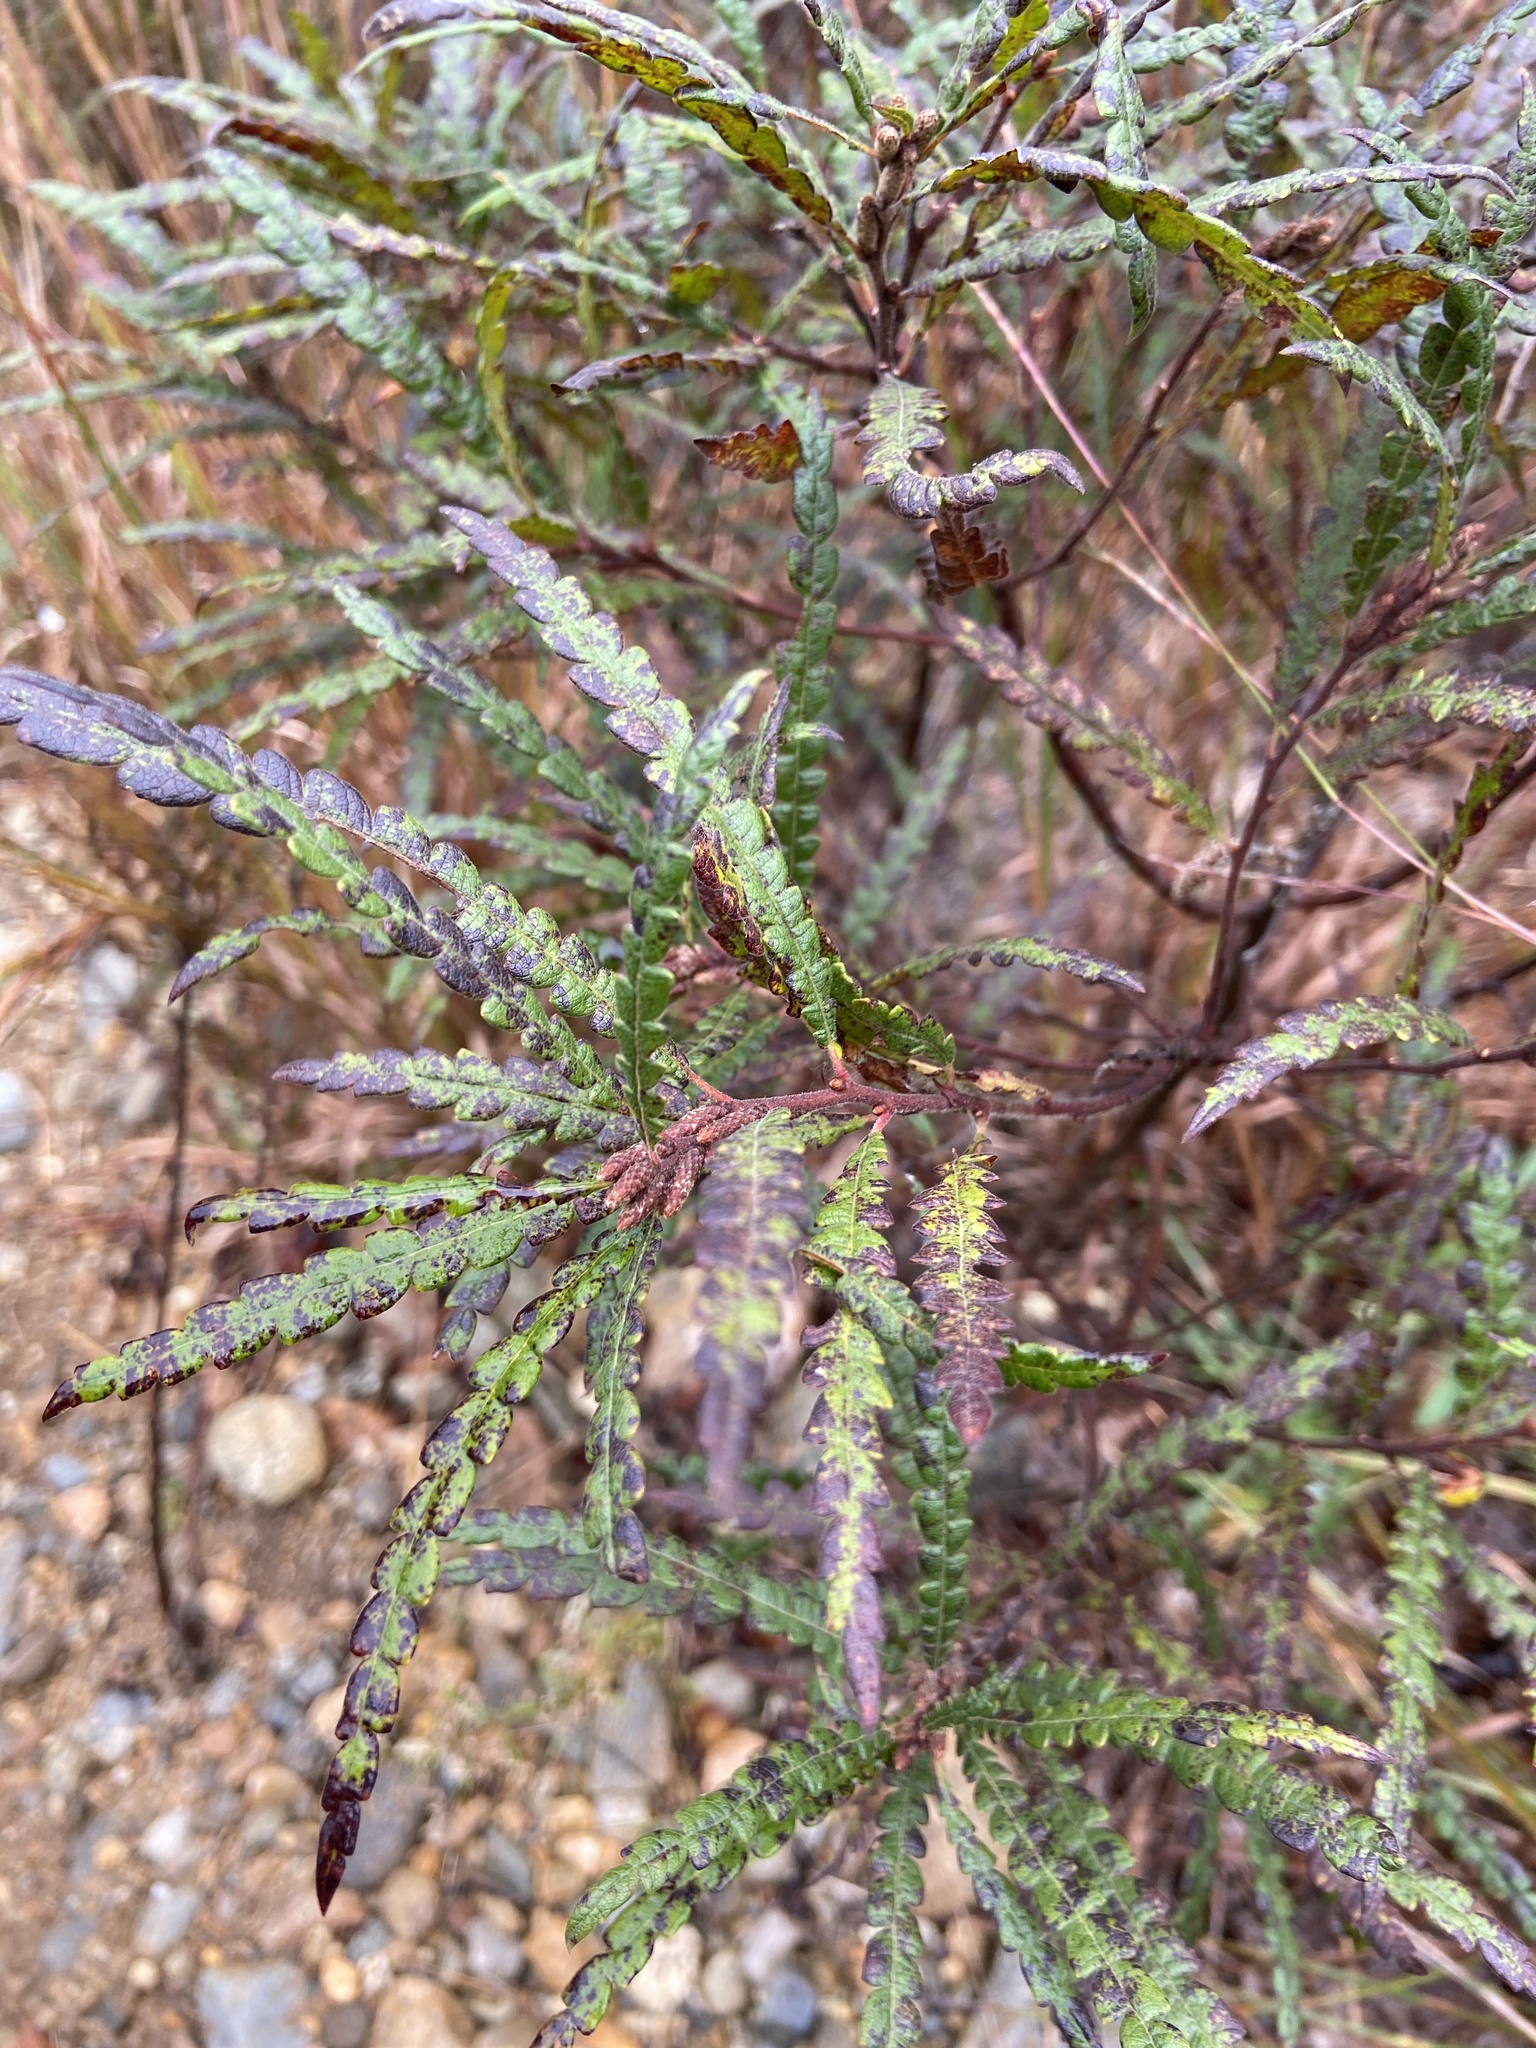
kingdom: Plantae
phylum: Tracheophyta
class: Magnoliopsida
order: Fagales
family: Myricaceae
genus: Comptonia
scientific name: Comptonia peregrina
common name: Sweet-fern
